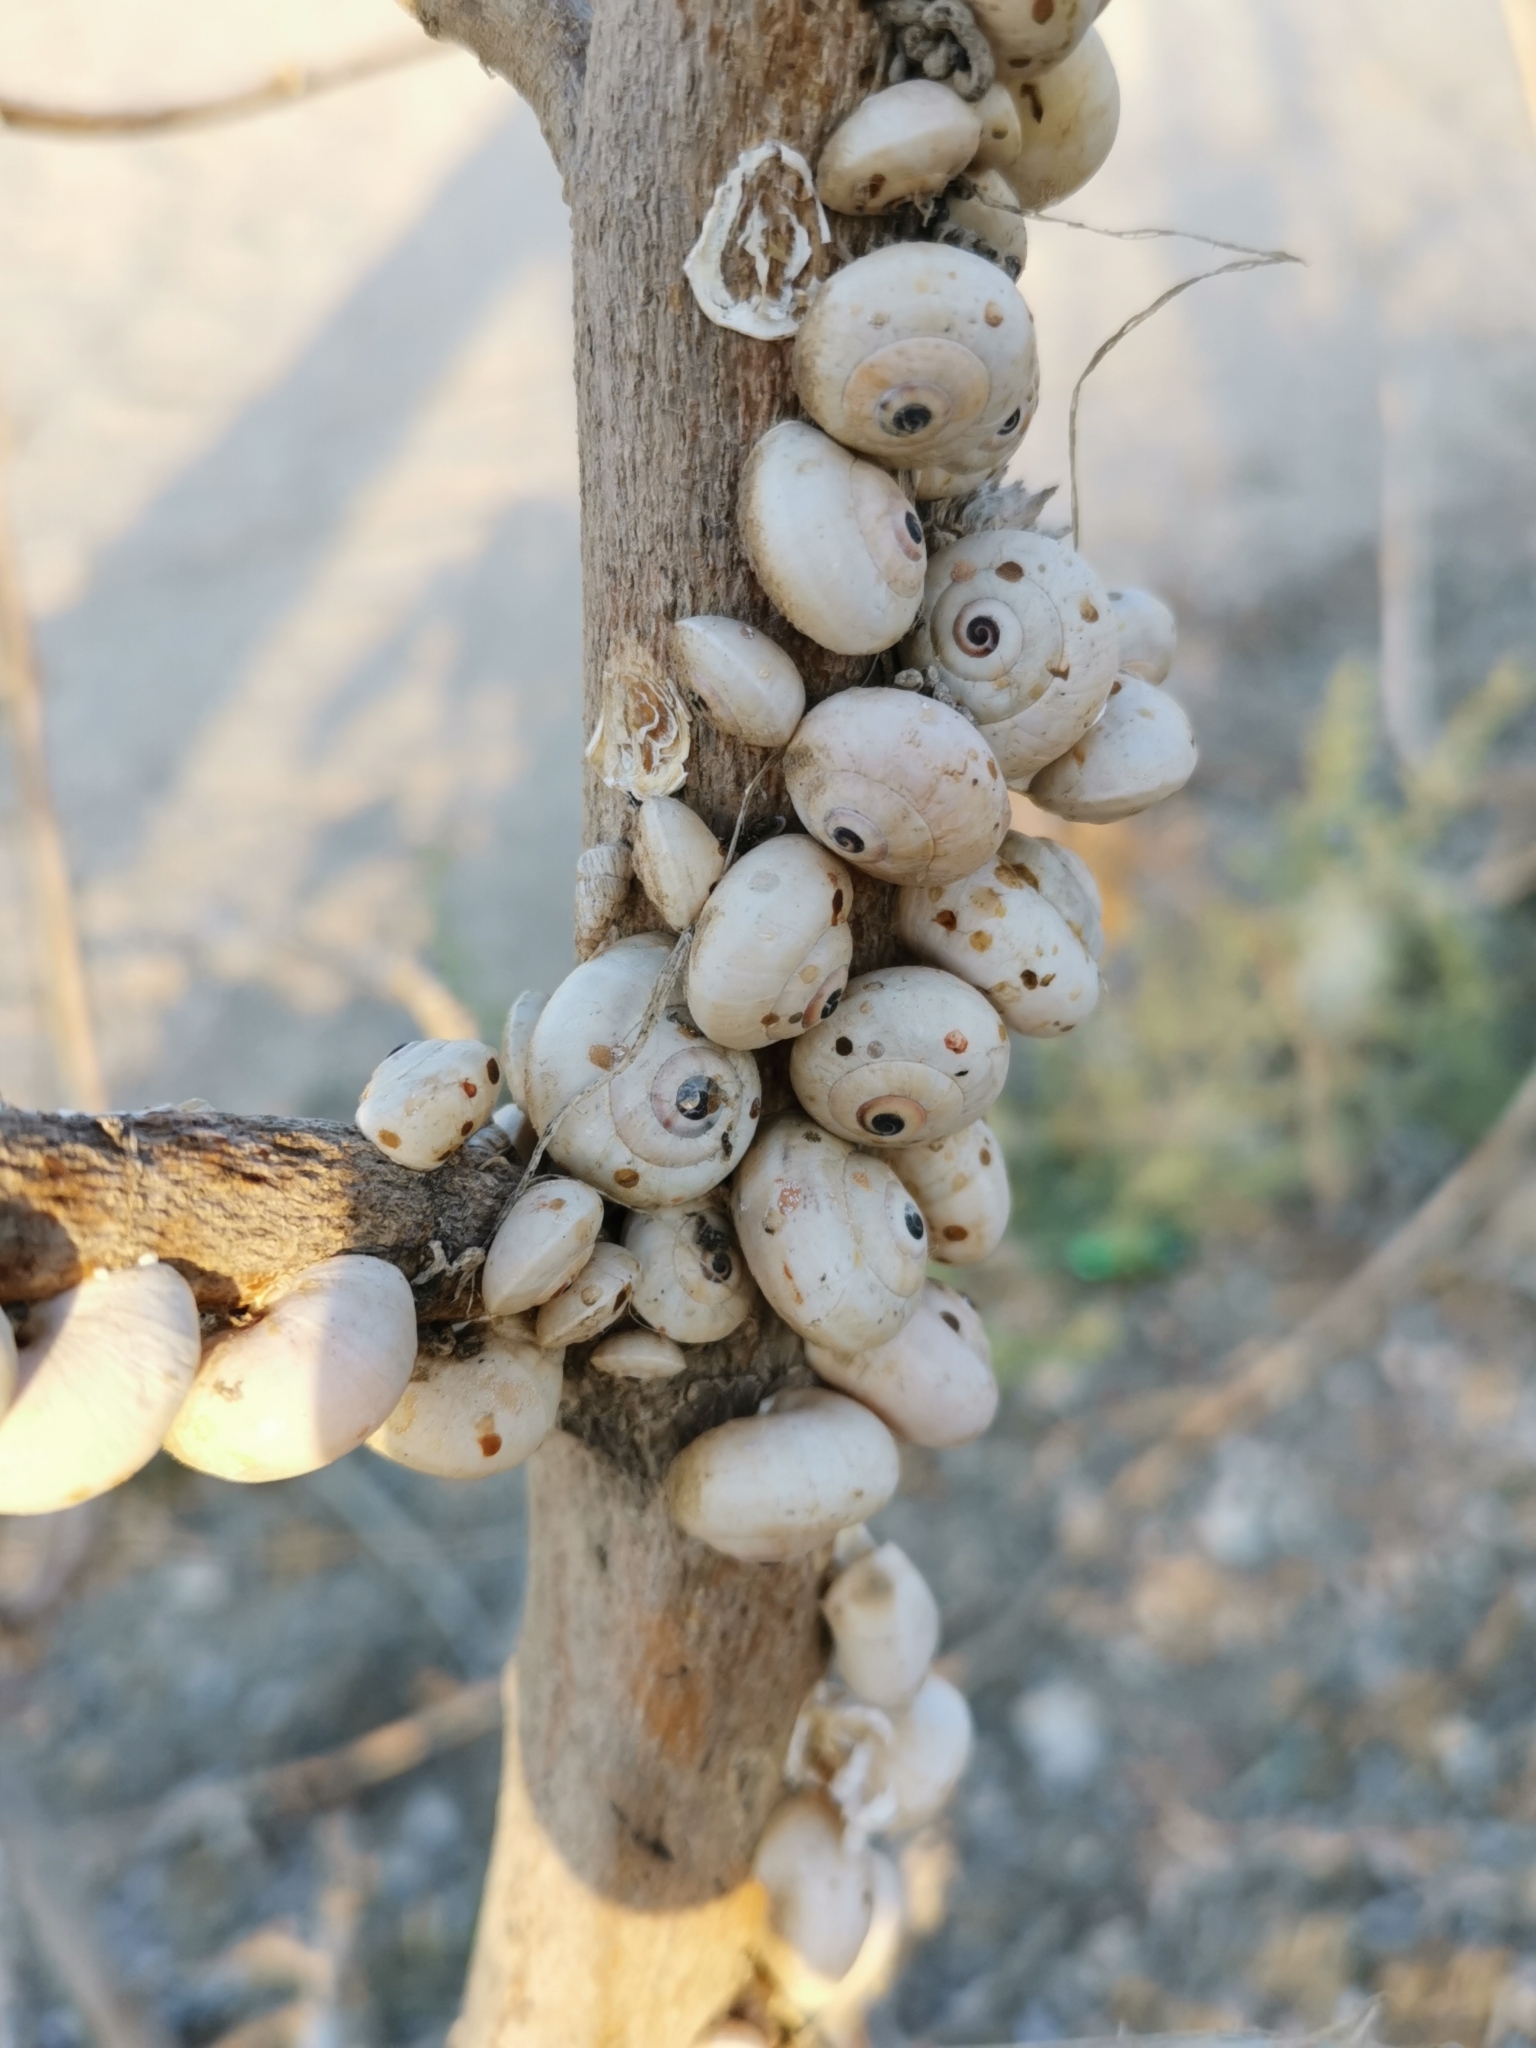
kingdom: Animalia
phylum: Mollusca
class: Gastropoda
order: Stylommatophora
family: Helicidae
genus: Theba
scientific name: Theba pisana
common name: White snail
